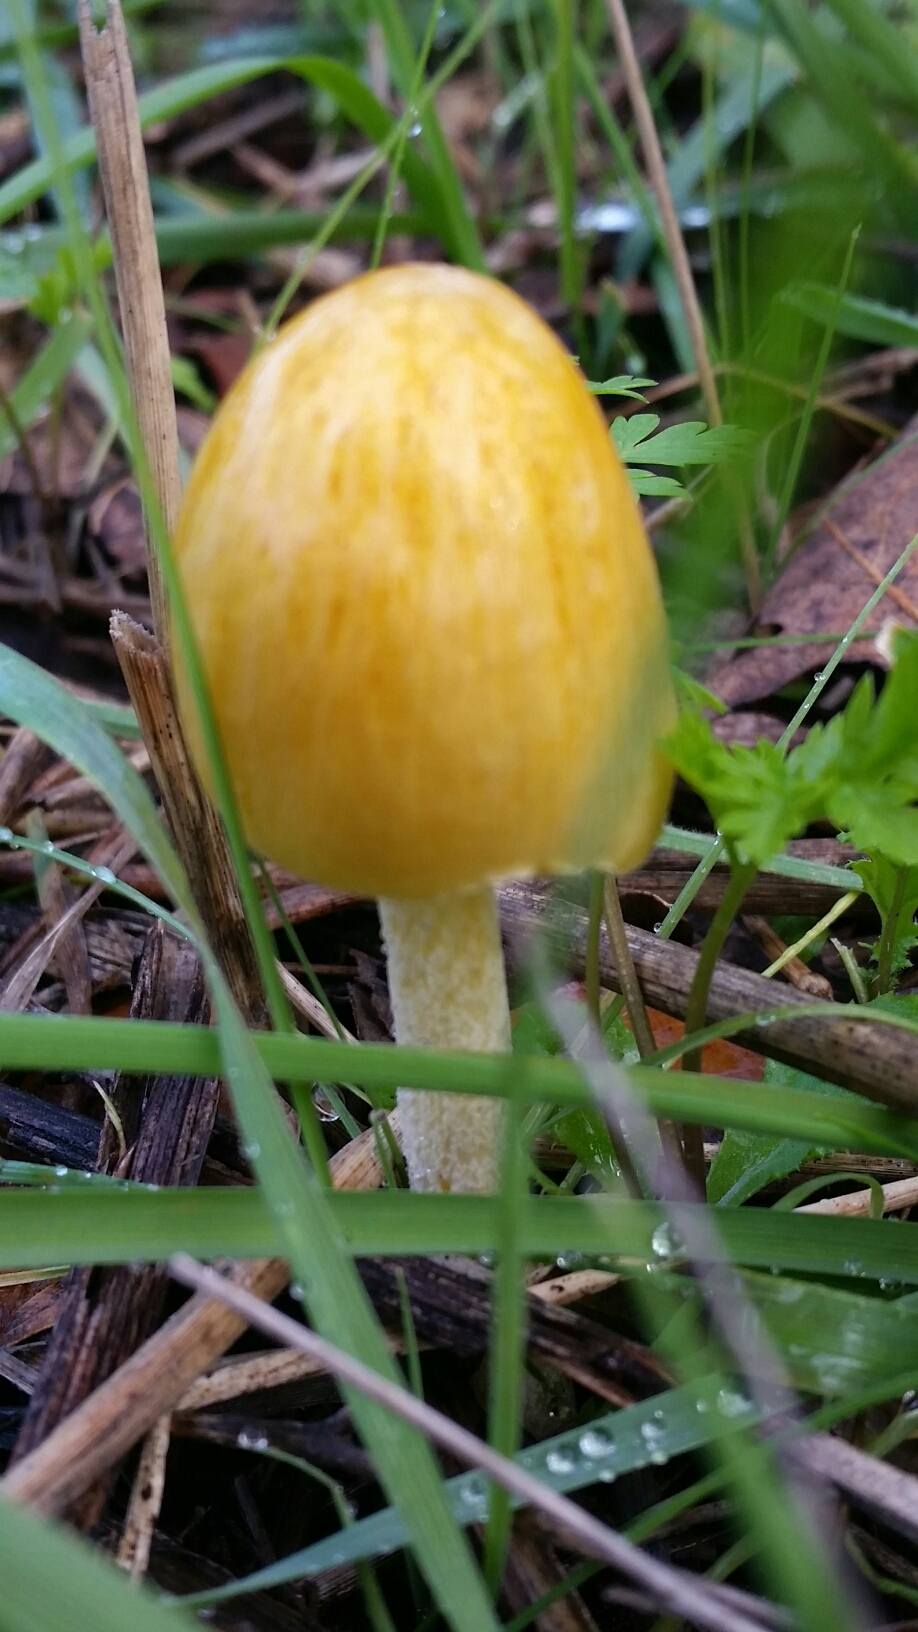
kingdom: Fungi
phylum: Basidiomycota
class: Agaricomycetes
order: Agaricales
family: Bolbitiaceae
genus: Bolbitius
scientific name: Bolbitius titubans
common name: Yellow fieldcap
